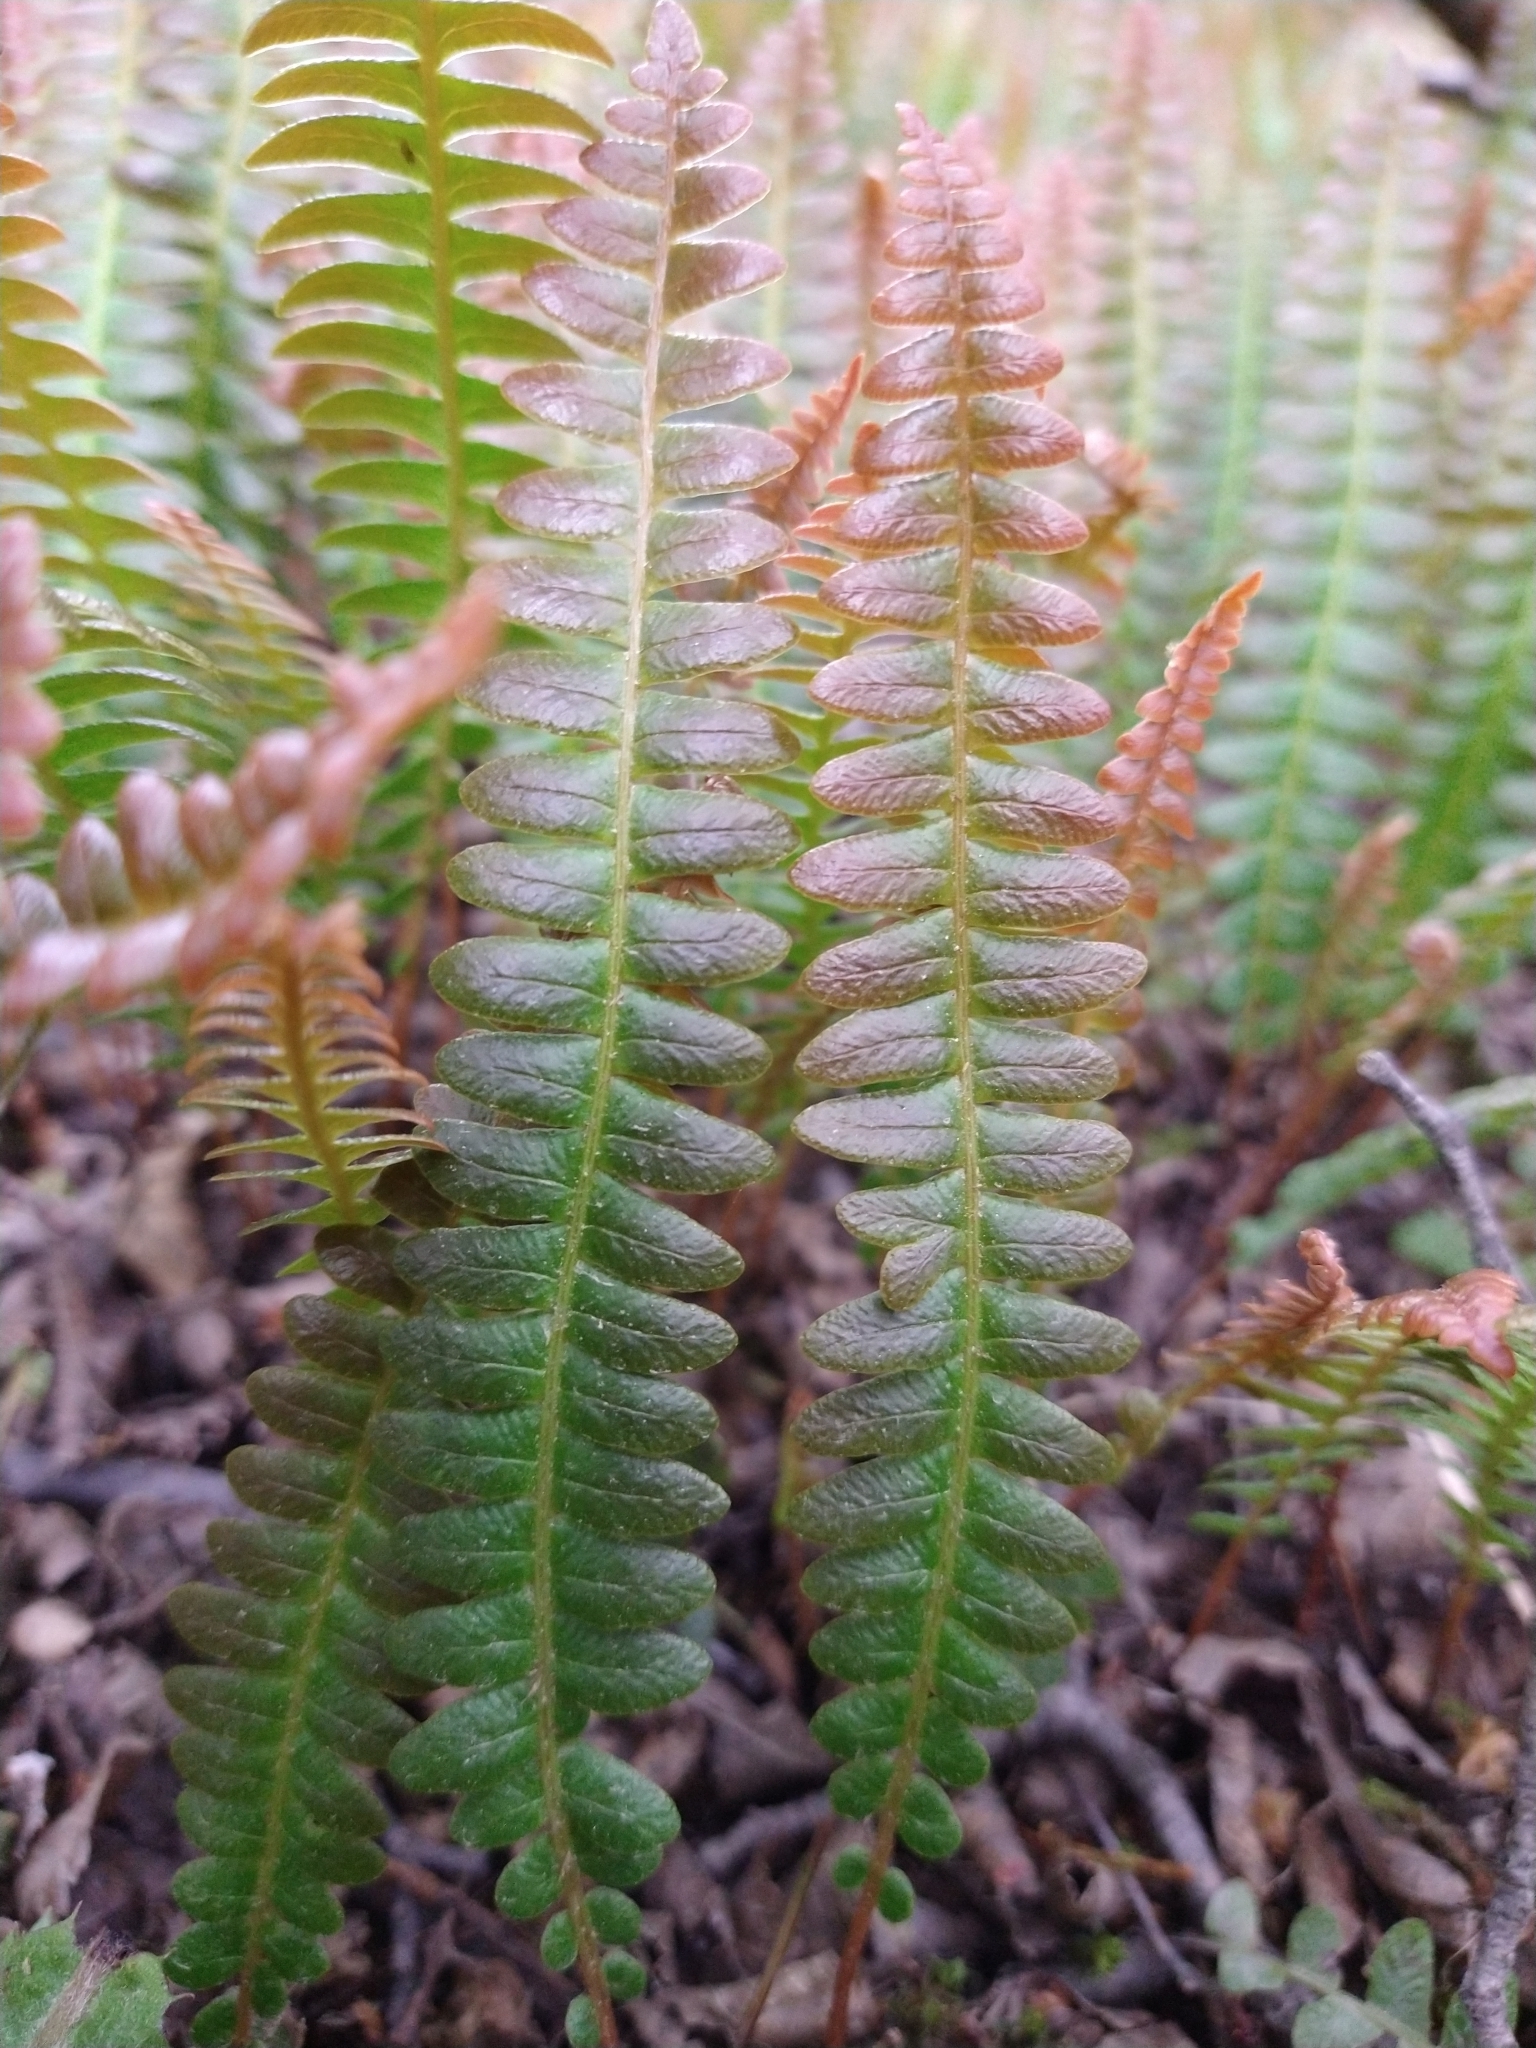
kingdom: Plantae
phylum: Tracheophyta
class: Polypodiopsida
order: Polypodiales
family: Blechnaceae
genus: Austroblechnum
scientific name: Austroblechnum penna-marina
